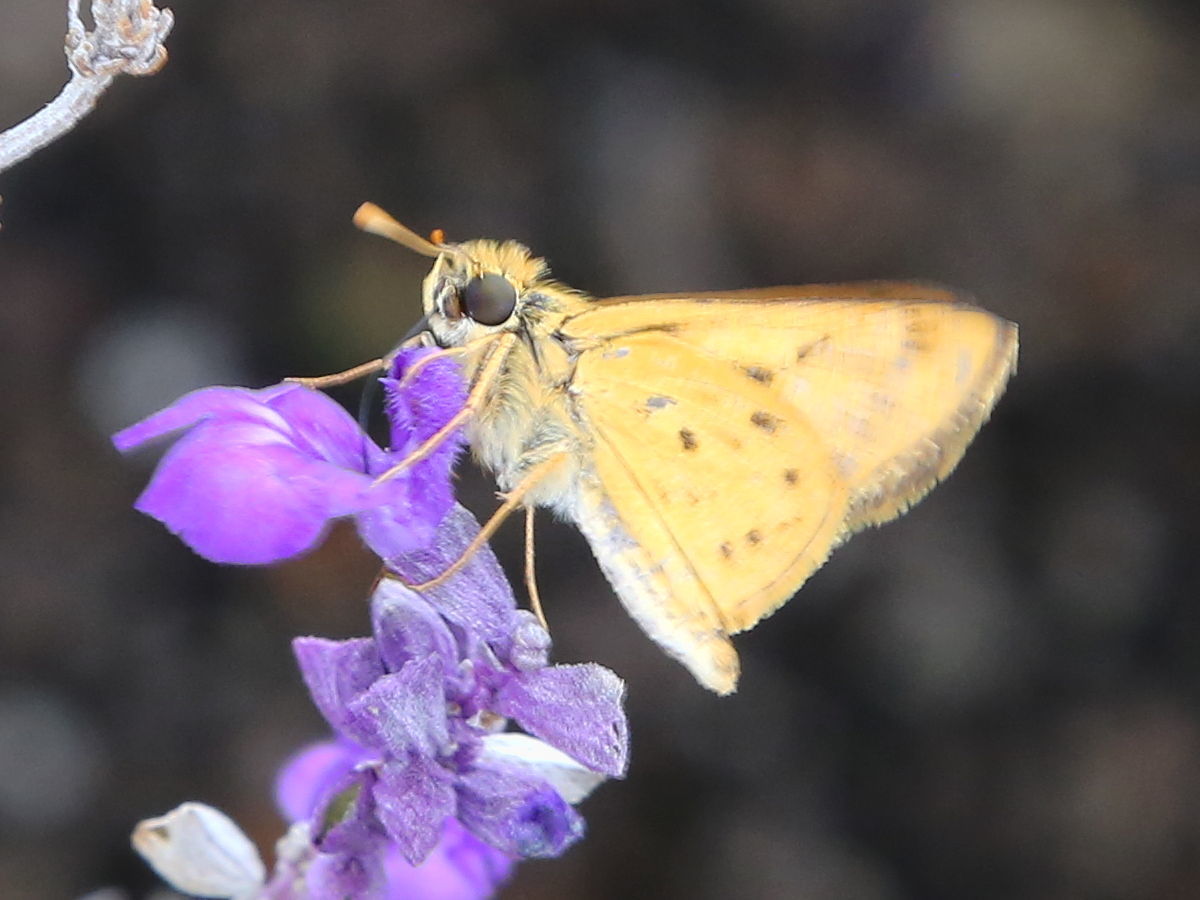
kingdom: Animalia
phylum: Arthropoda
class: Insecta
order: Lepidoptera
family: Hesperiidae
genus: Hylephila
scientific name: Hylephila phyleus
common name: Fiery skipper
